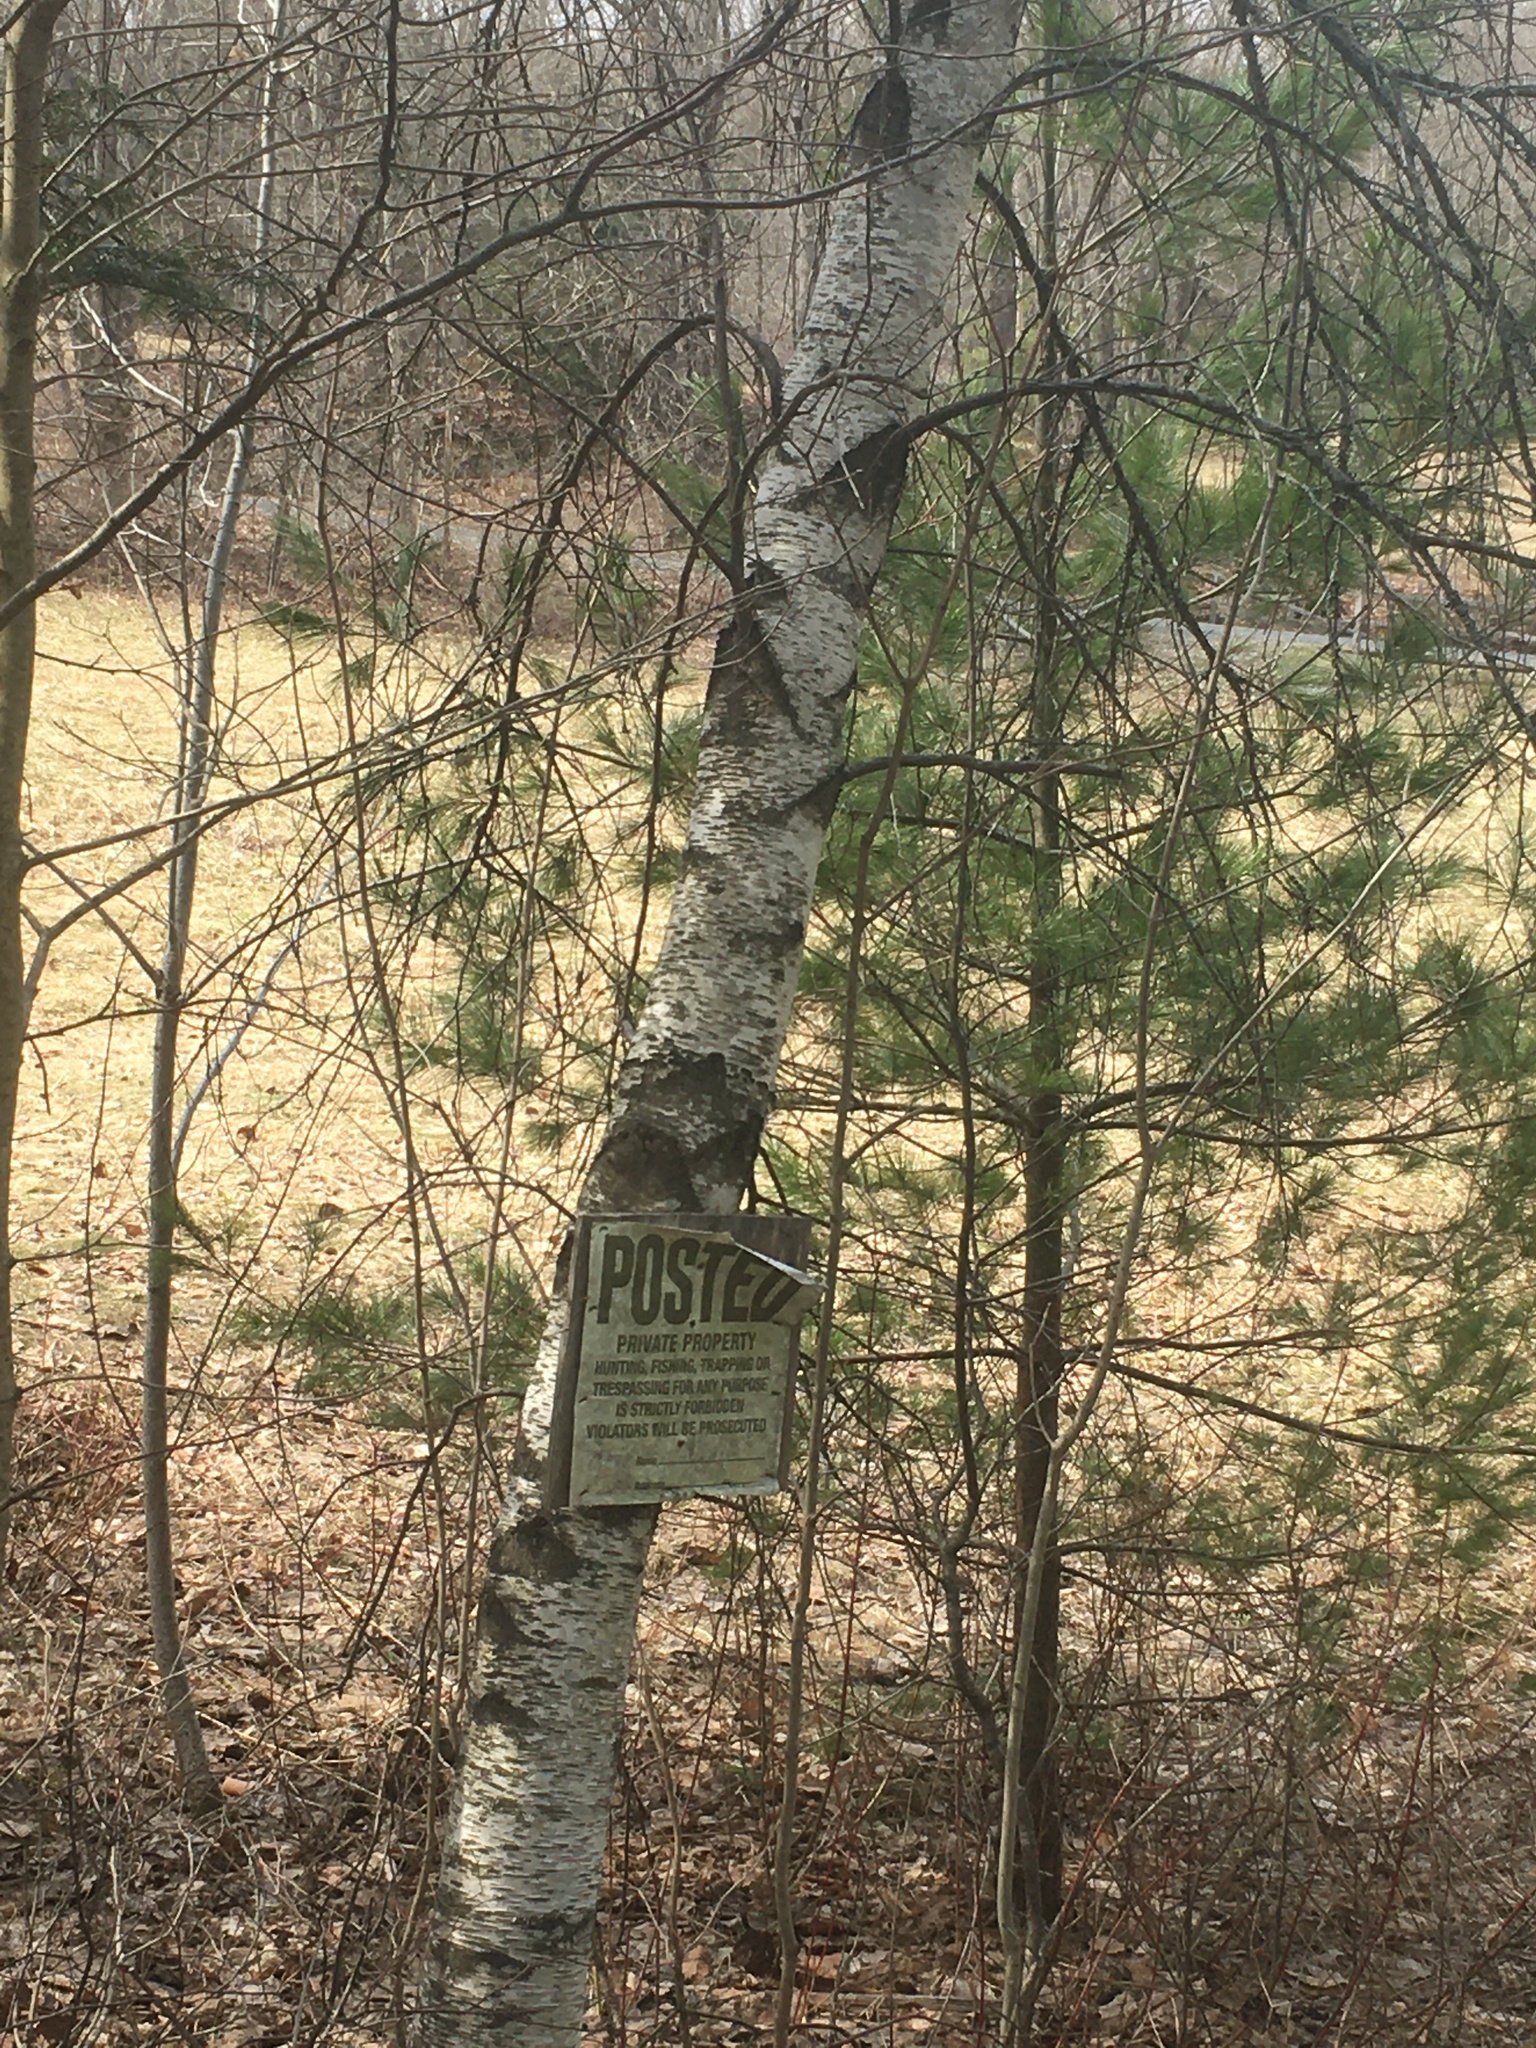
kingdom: Plantae
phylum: Tracheophyta
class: Magnoliopsida
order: Fagales
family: Betulaceae
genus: Betula
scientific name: Betula populifolia
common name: Fire birch
